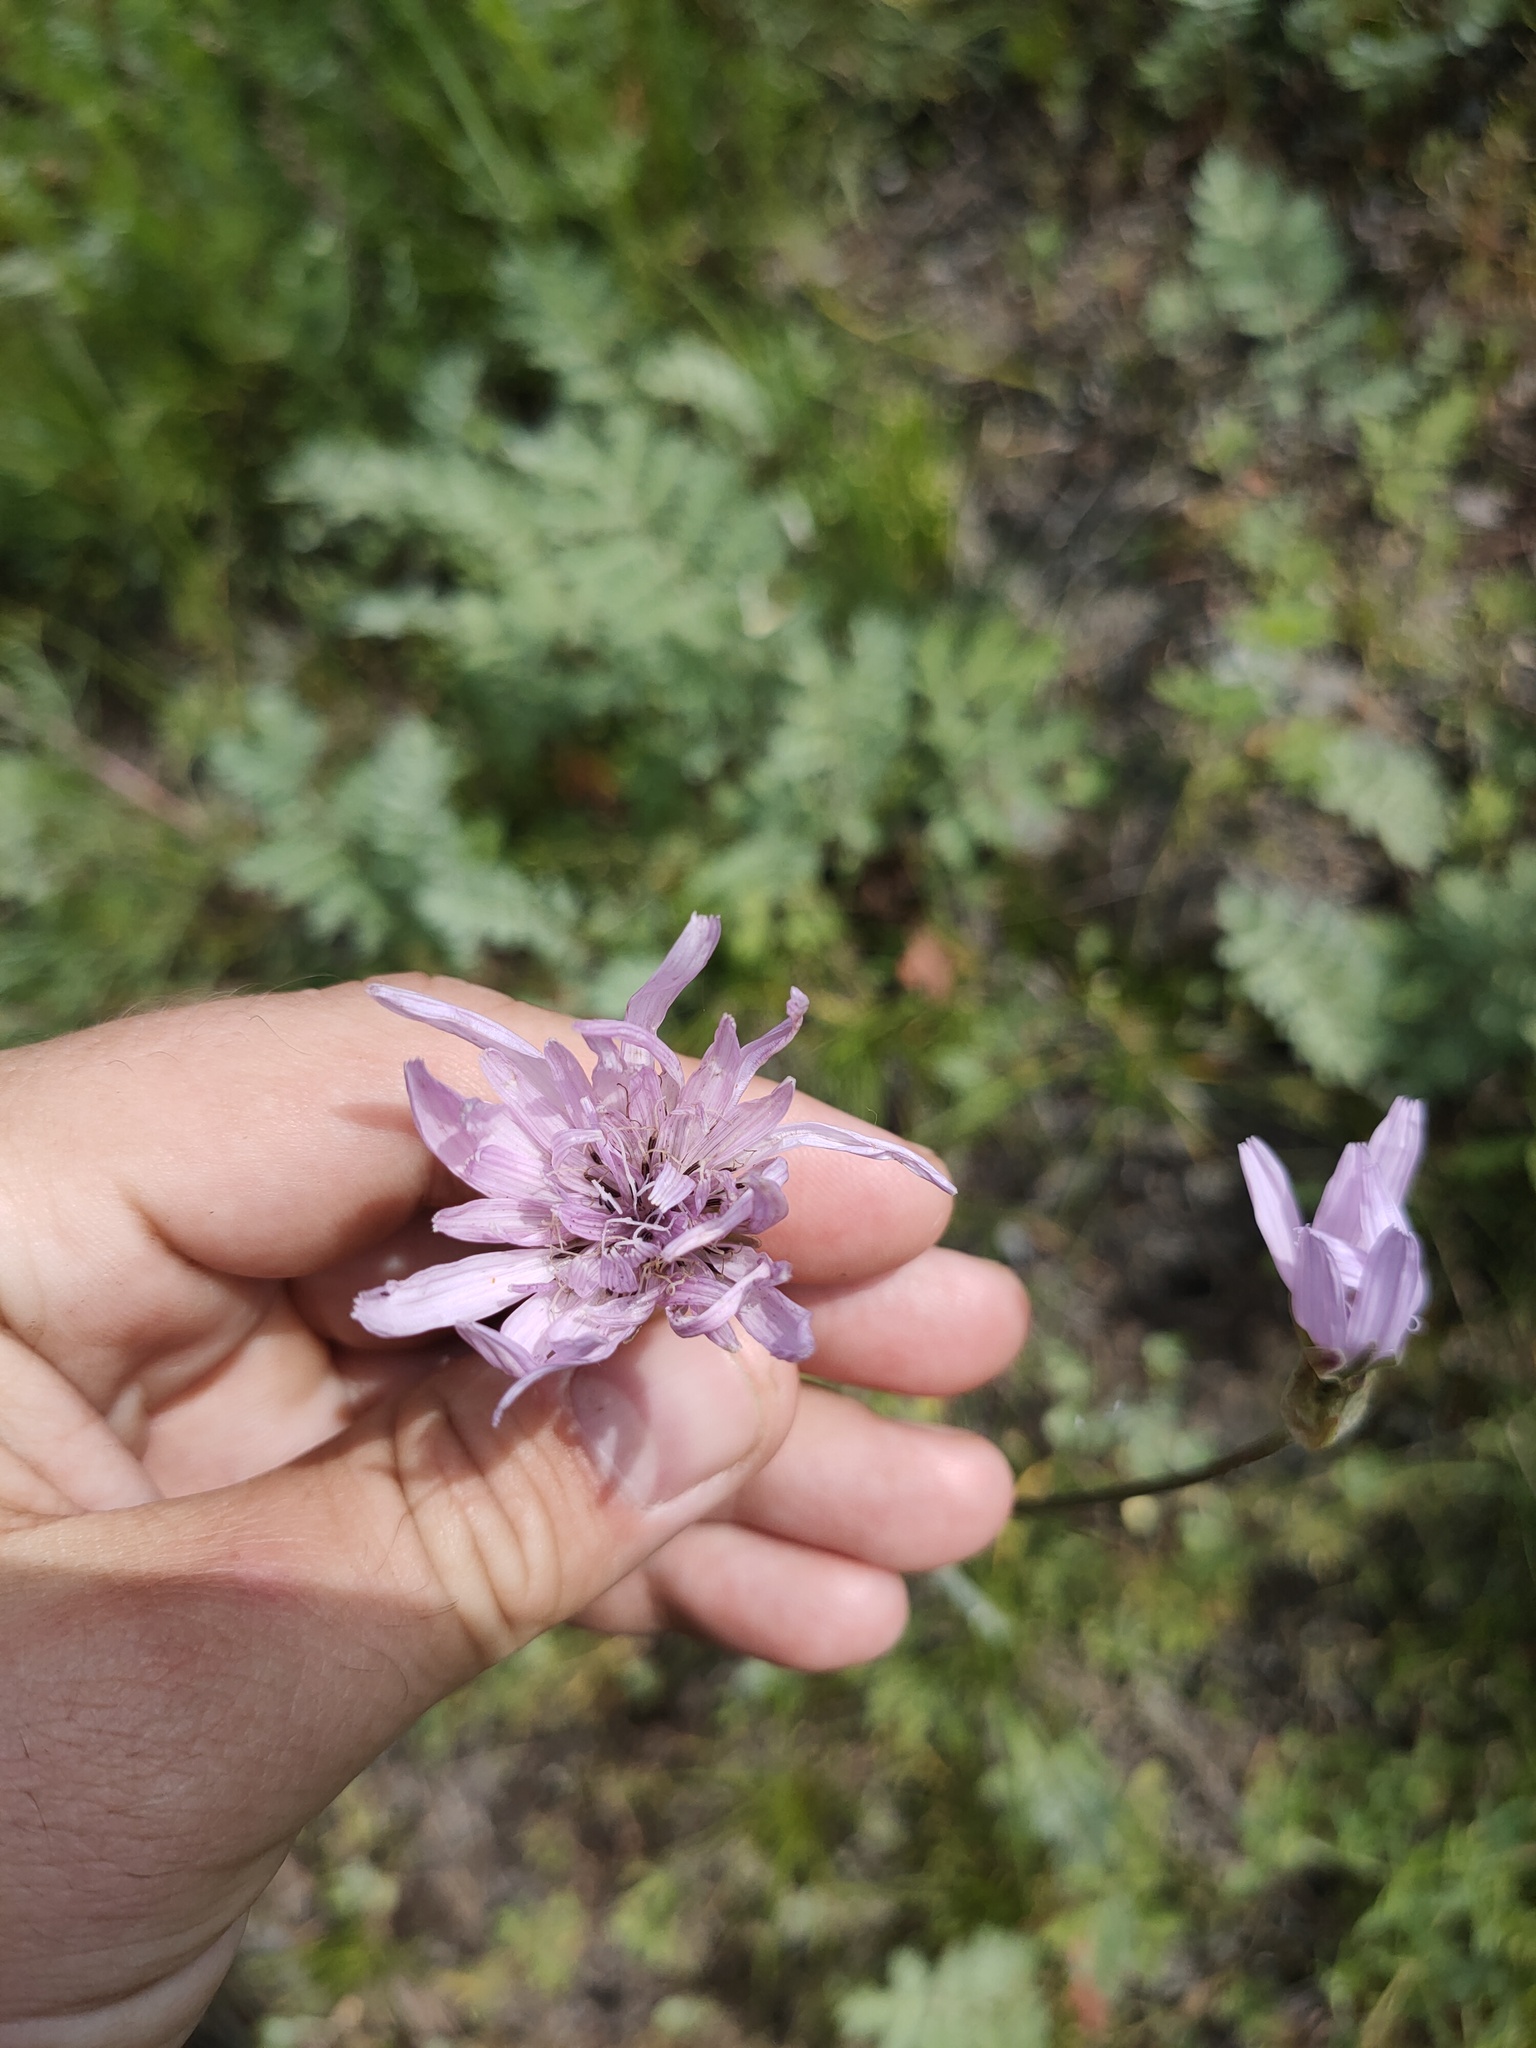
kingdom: Plantae
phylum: Tracheophyta
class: Magnoliopsida
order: Asterales
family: Asteraceae
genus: Scorzonera
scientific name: Scorzonera purpurea
